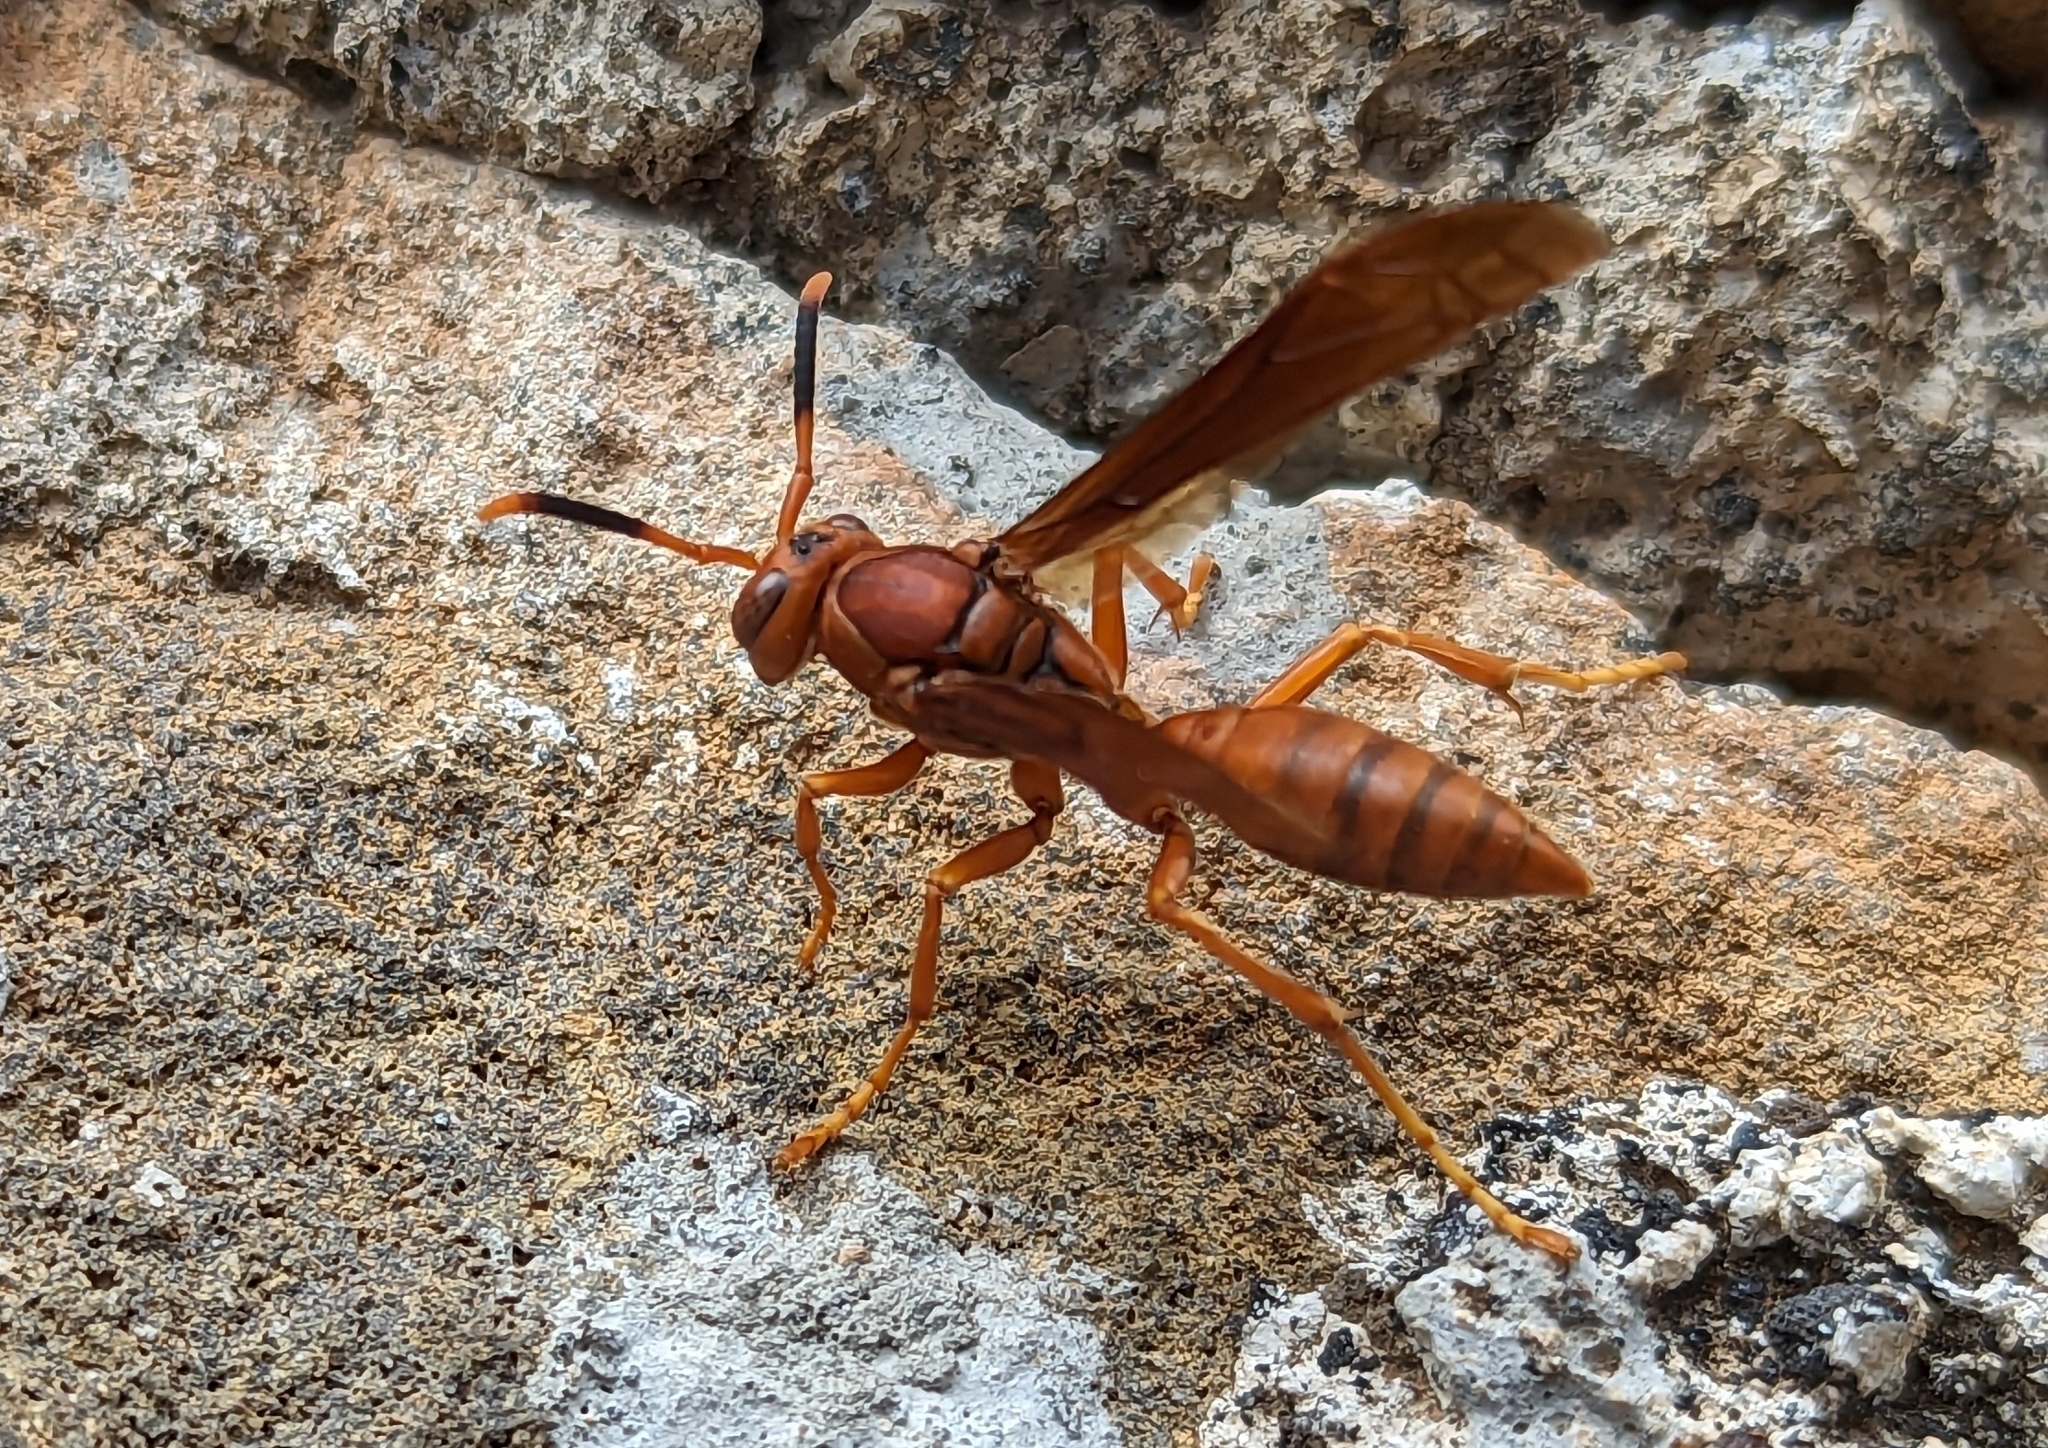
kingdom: Animalia
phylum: Arthropoda
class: Insecta
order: Hymenoptera
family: Eumenidae
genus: Polistes
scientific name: Polistes canadensis
